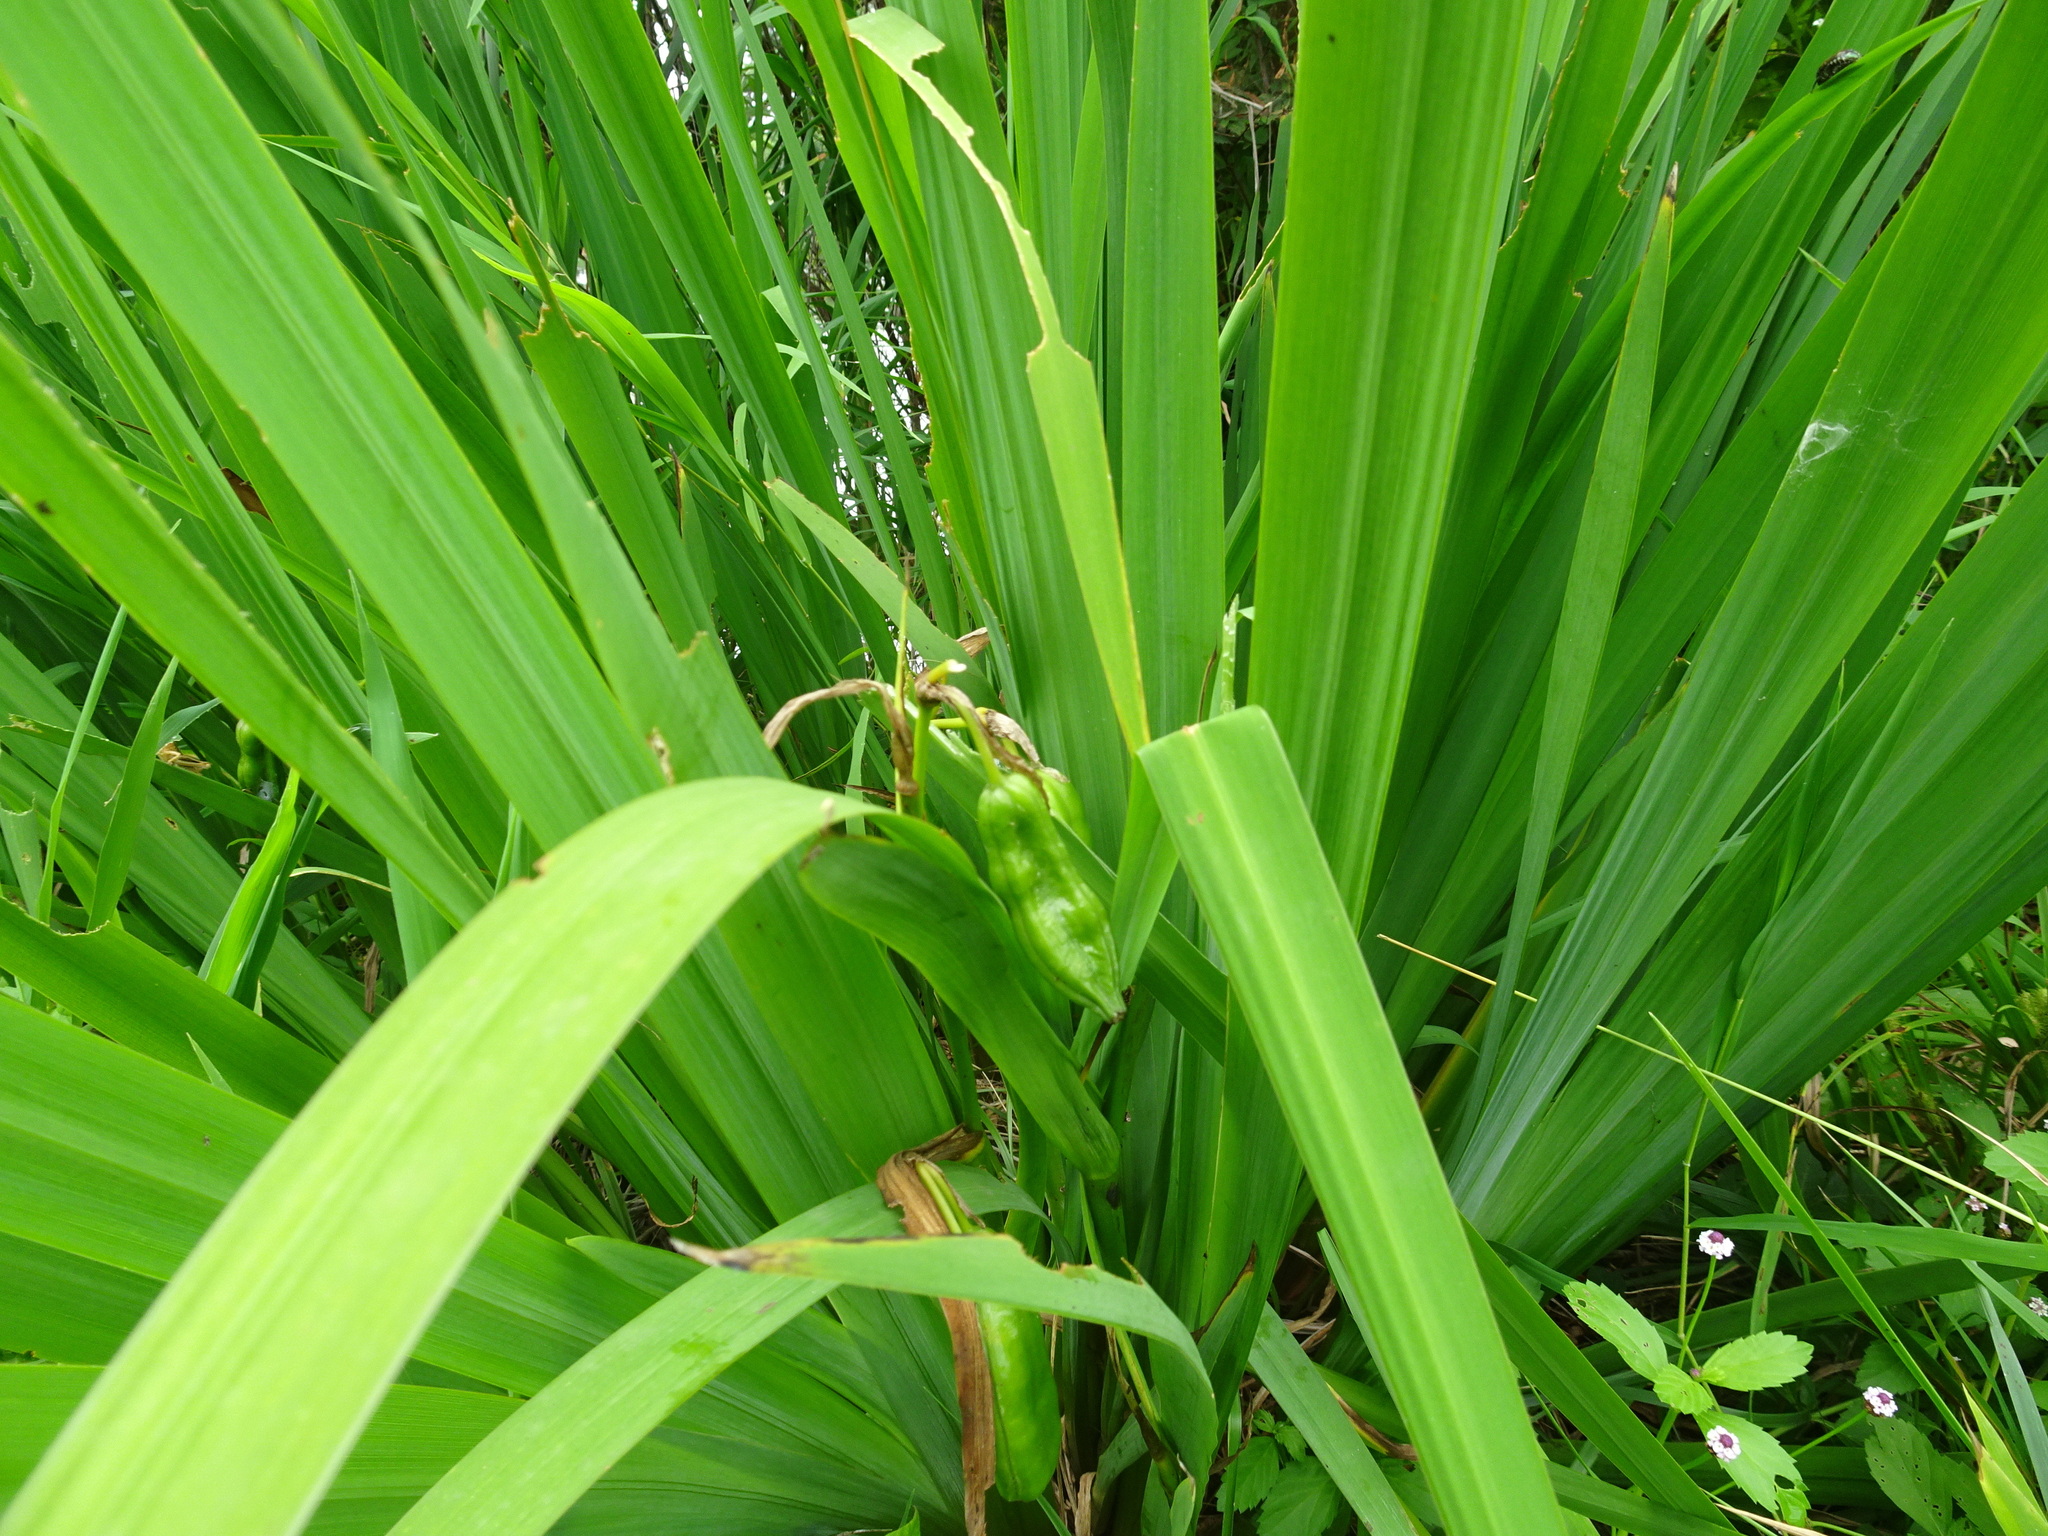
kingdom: Plantae
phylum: Tracheophyta
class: Liliopsida
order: Asparagales
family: Iridaceae
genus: Iris
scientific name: Iris pseudacorus
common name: Yellow flag
